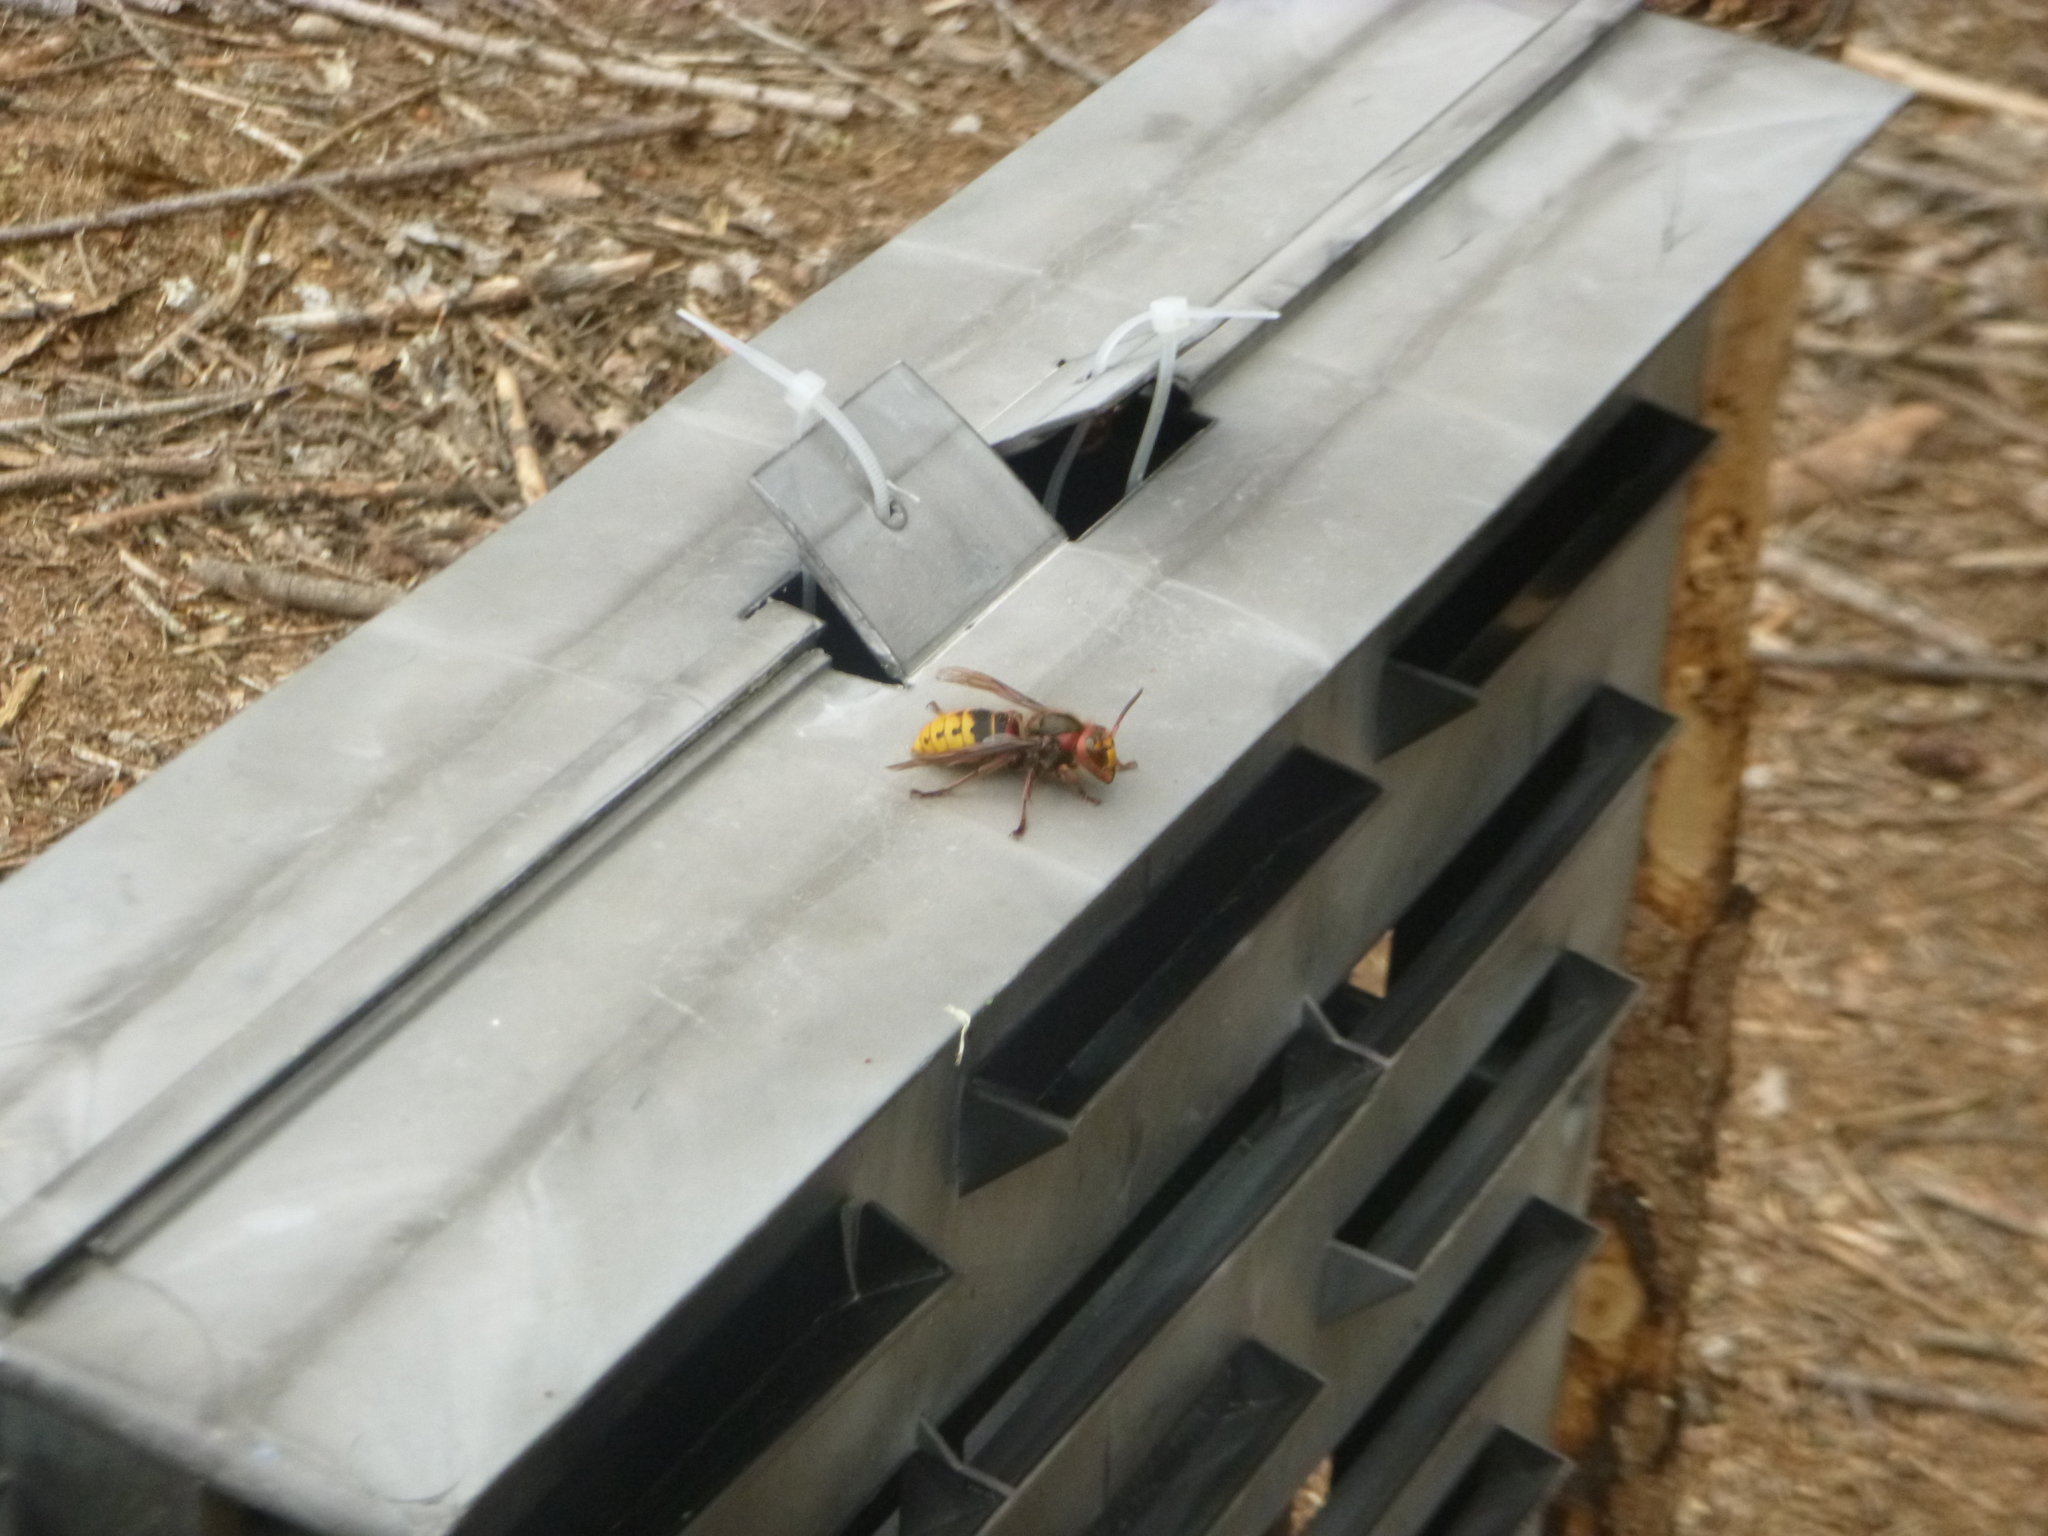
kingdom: Animalia
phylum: Arthropoda
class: Insecta
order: Hymenoptera
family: Vespidae
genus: Vespa
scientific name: Vespa crabro
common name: Hornet
